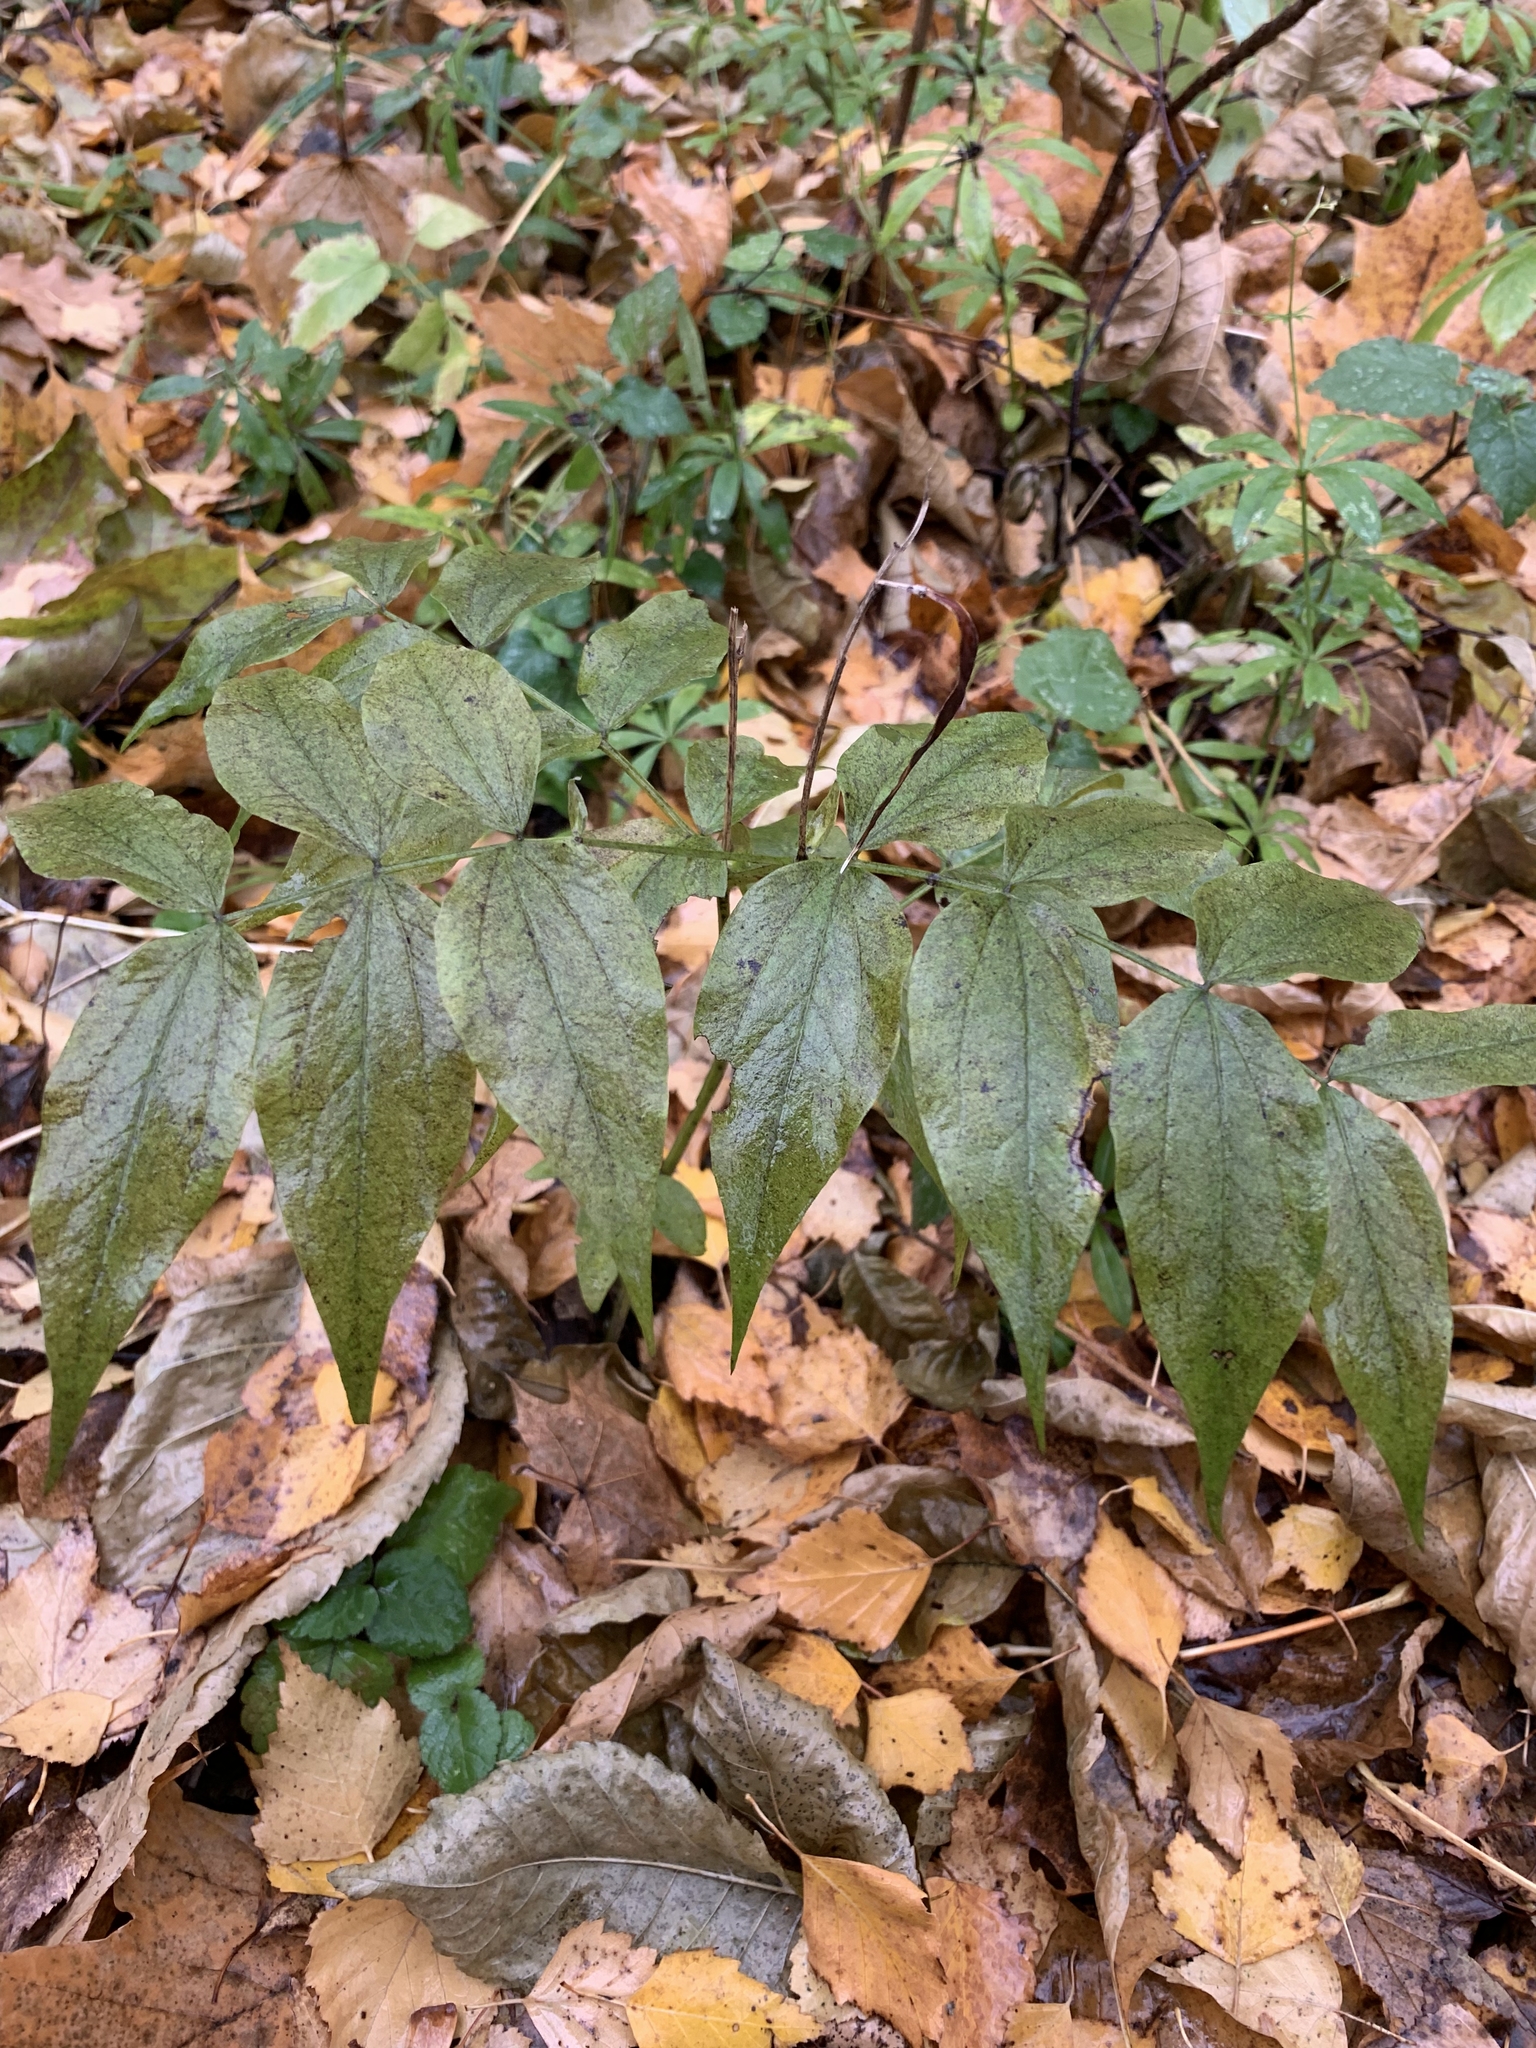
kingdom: Plantae
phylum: Tracheophyta
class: Magnoliopsida
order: Fabales
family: Fabaceae
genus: Lathyrus
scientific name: Lathyrus vernus
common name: Spring pea
